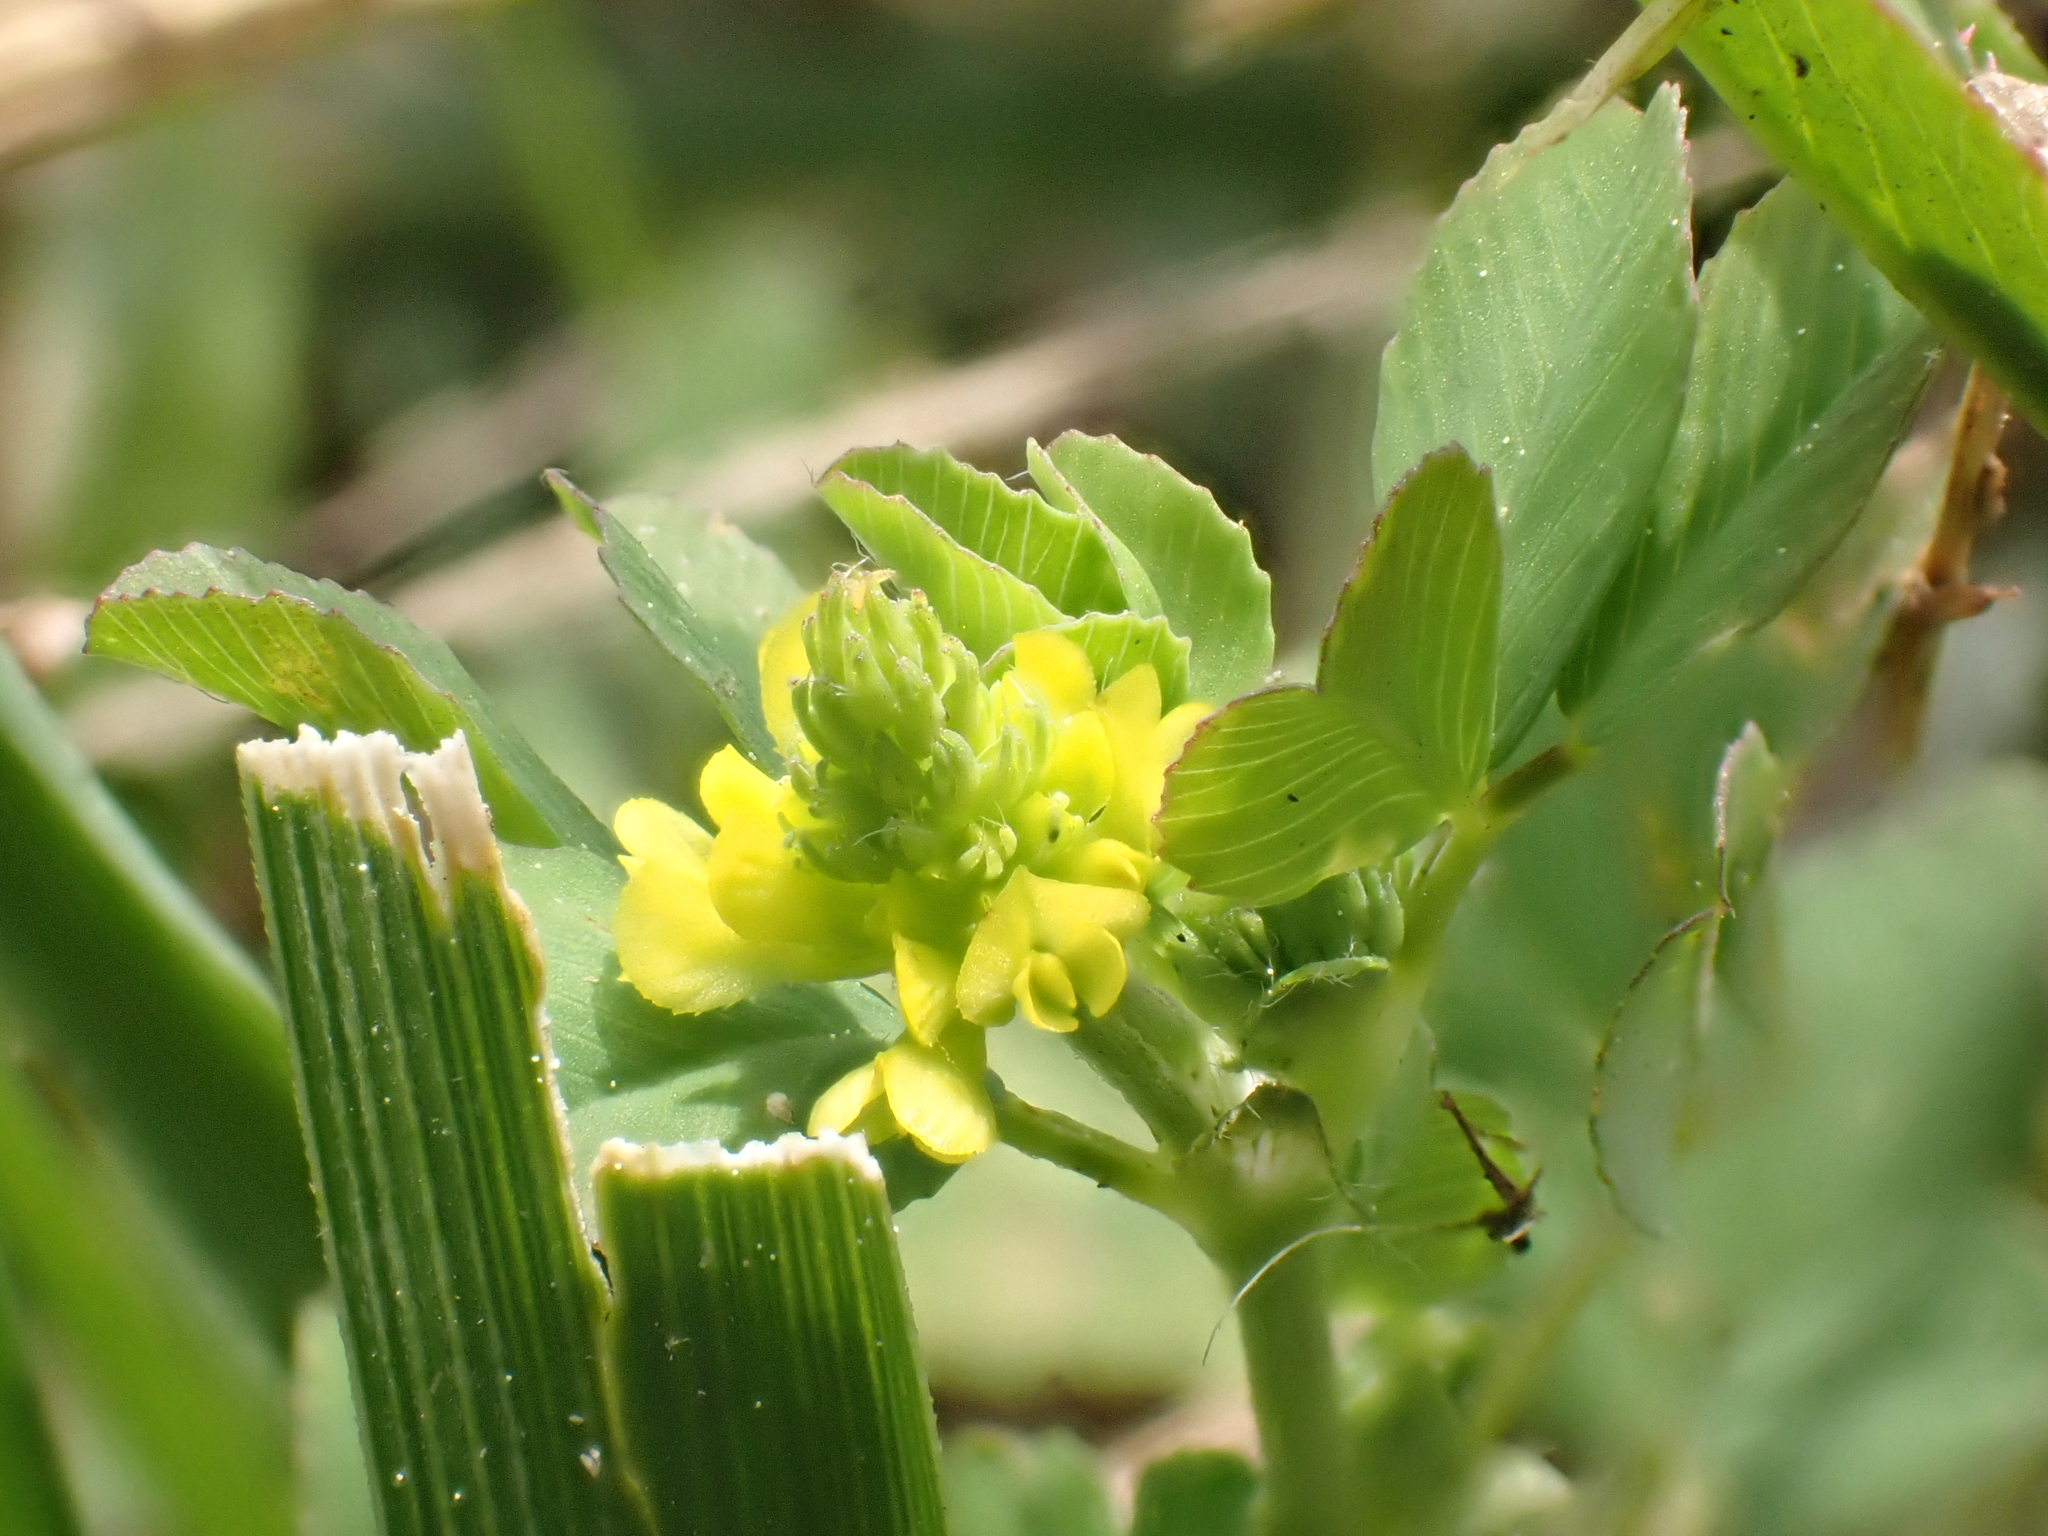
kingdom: Plantae
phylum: Tracheophyta
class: Magnoliopsida
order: Fabales
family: Fabaceae
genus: Trifolium
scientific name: Trifolium campestre
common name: Field clover
